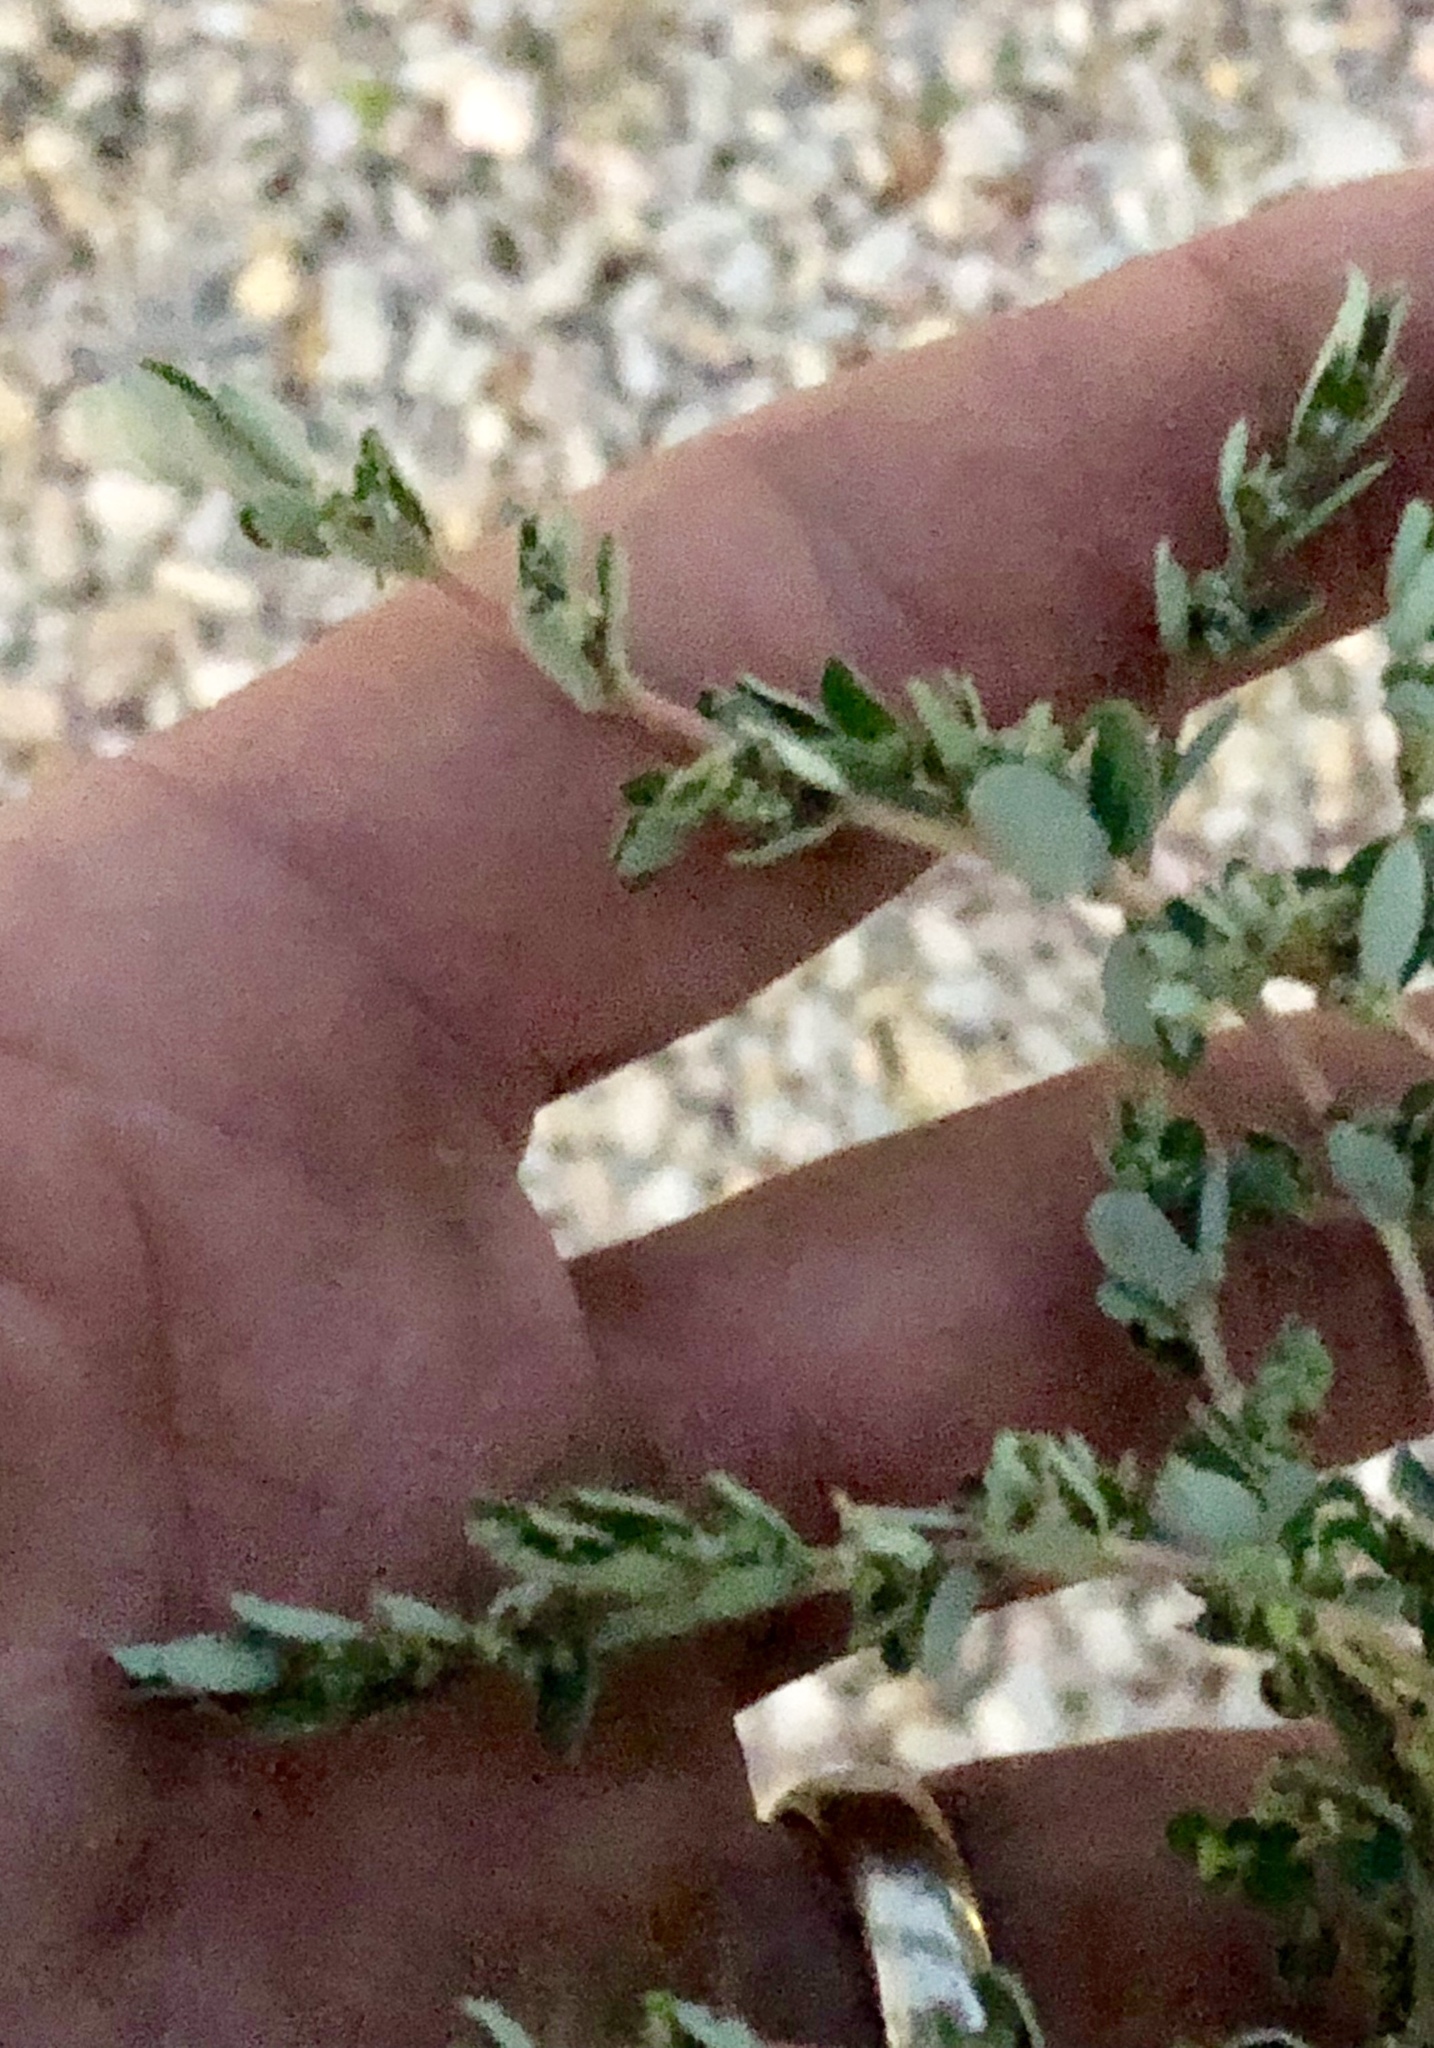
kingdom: Plantae
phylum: Tracheophyta
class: Magnoliopsida
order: Malpighiales
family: Euphorbiaceae
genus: Euphorbia
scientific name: Euphorbia prostrata
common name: Prostrate sandmat
